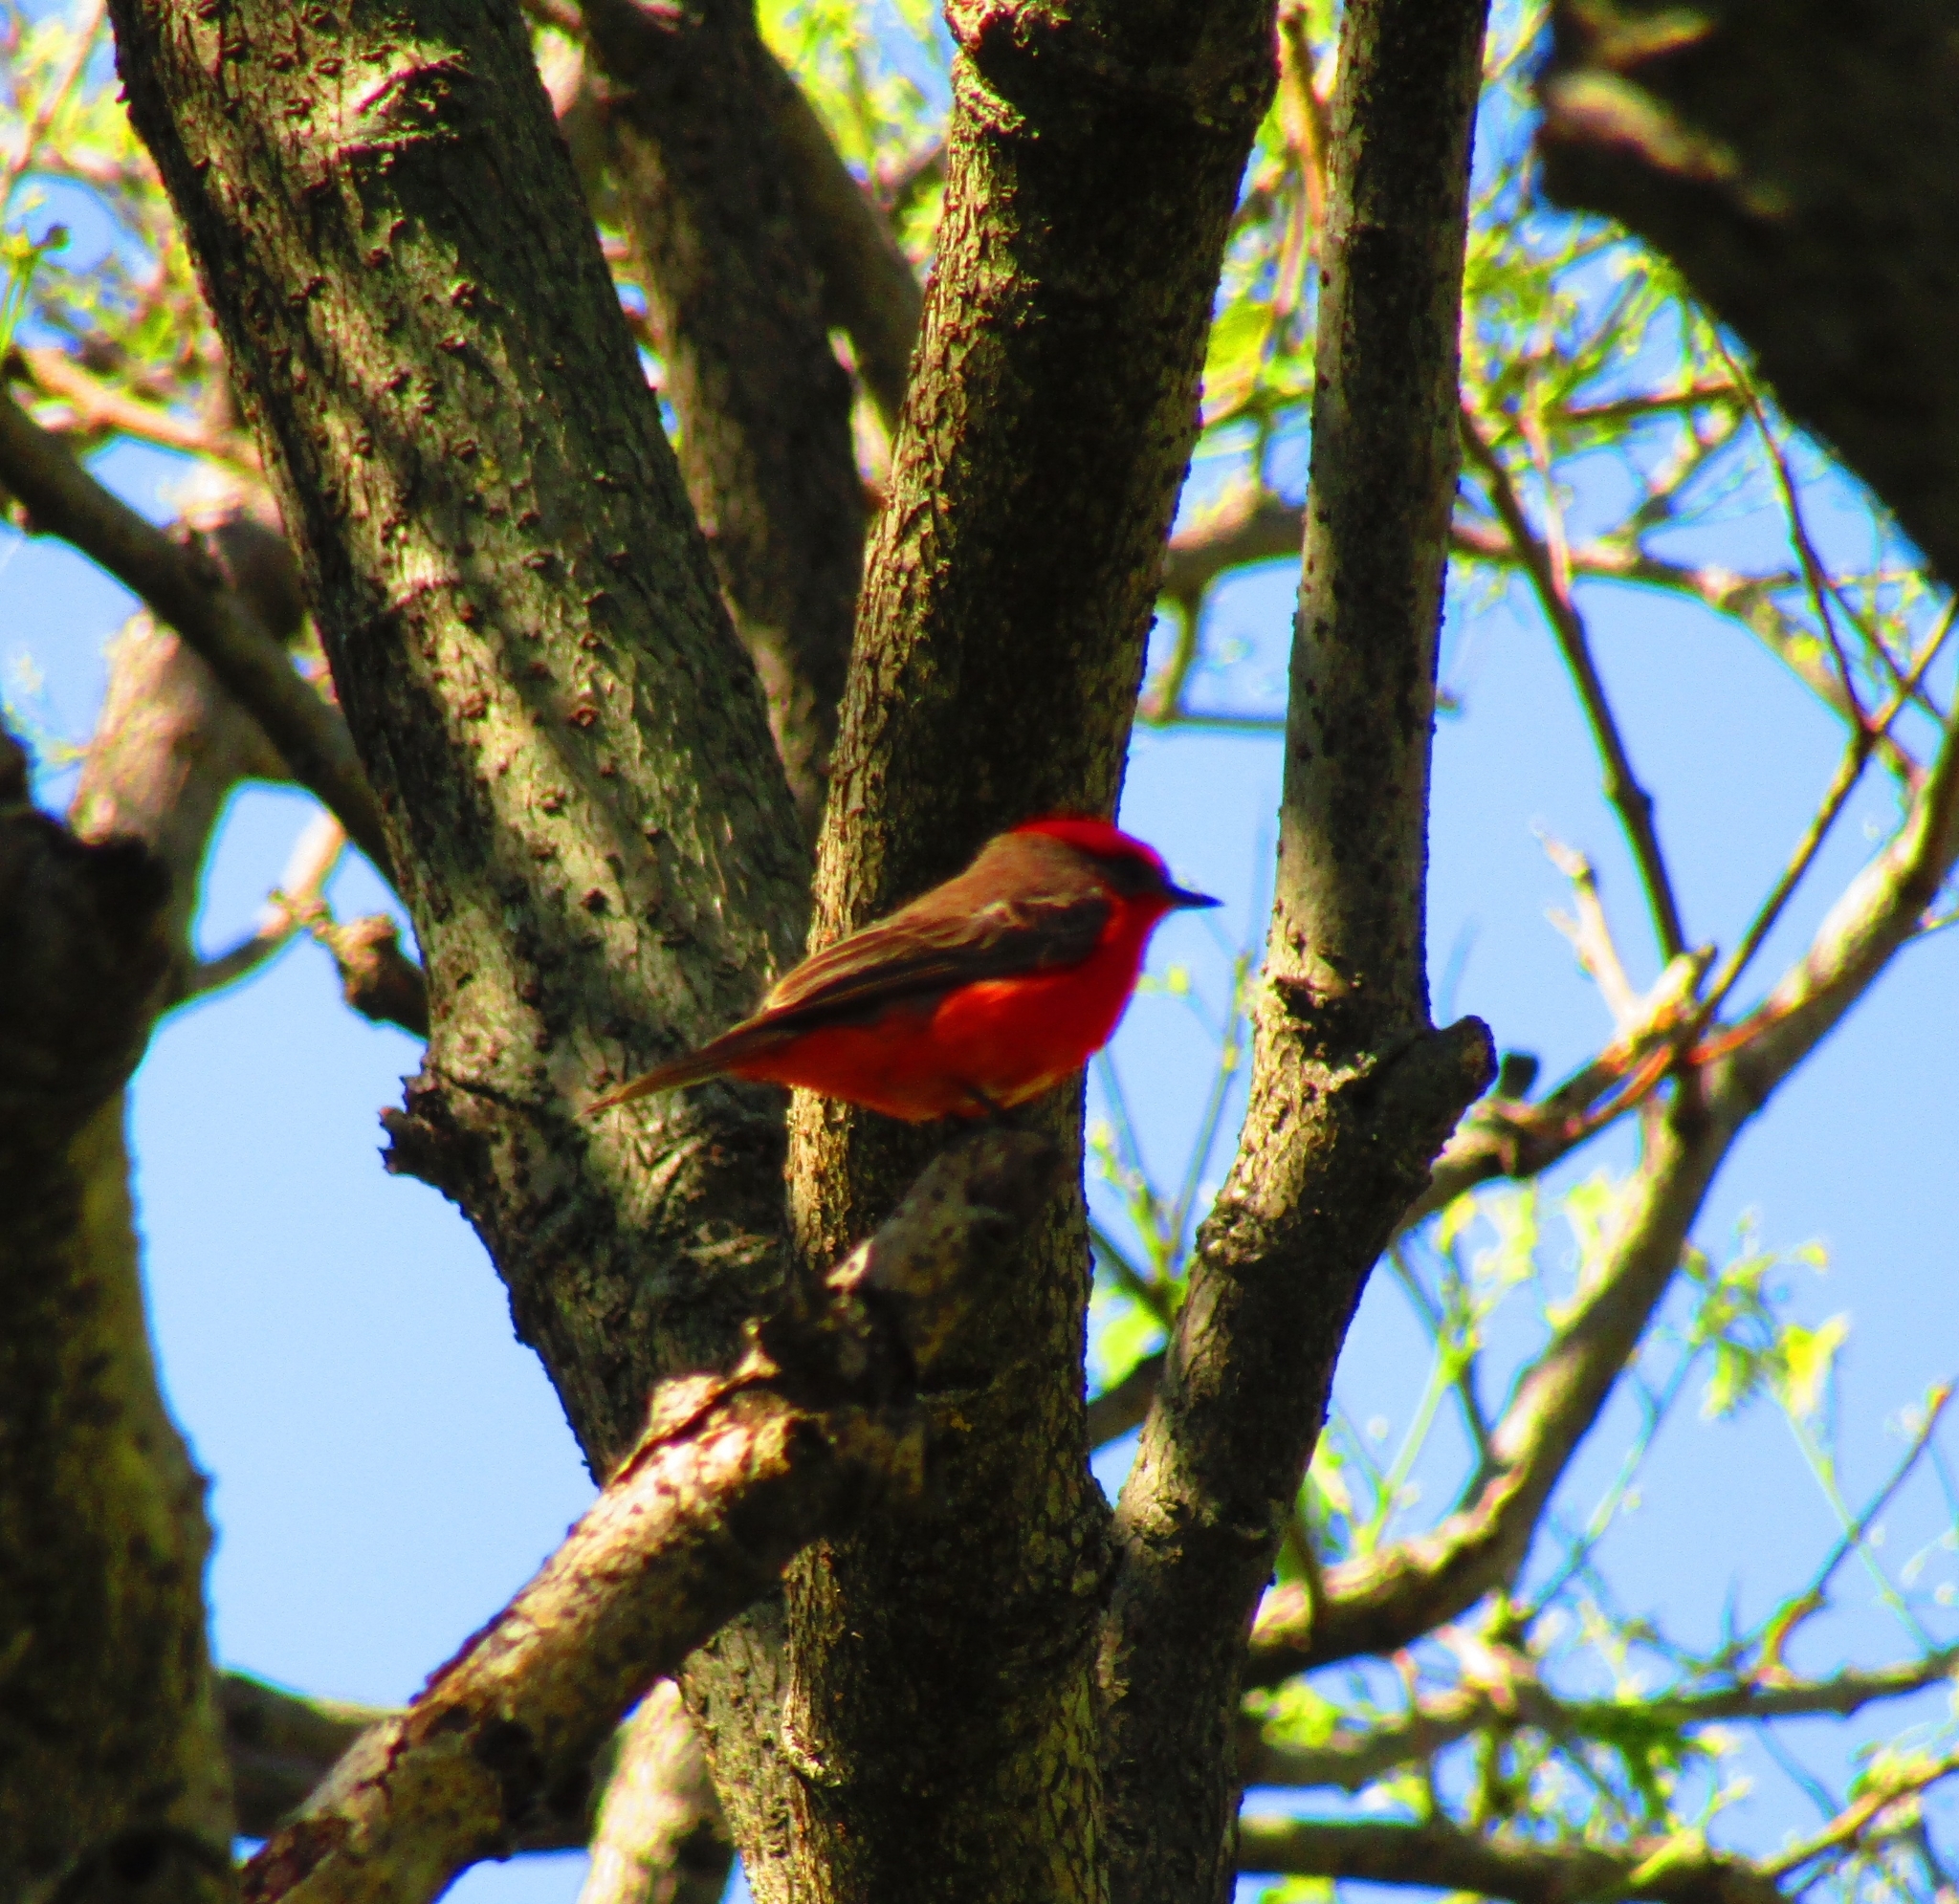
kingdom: Animalia
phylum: Chordata
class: Aves
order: Passeriformes
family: Tyrannidae
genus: Pyrocephalus
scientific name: Pyrocephalus rubinus
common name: Vermilion flycatcher
